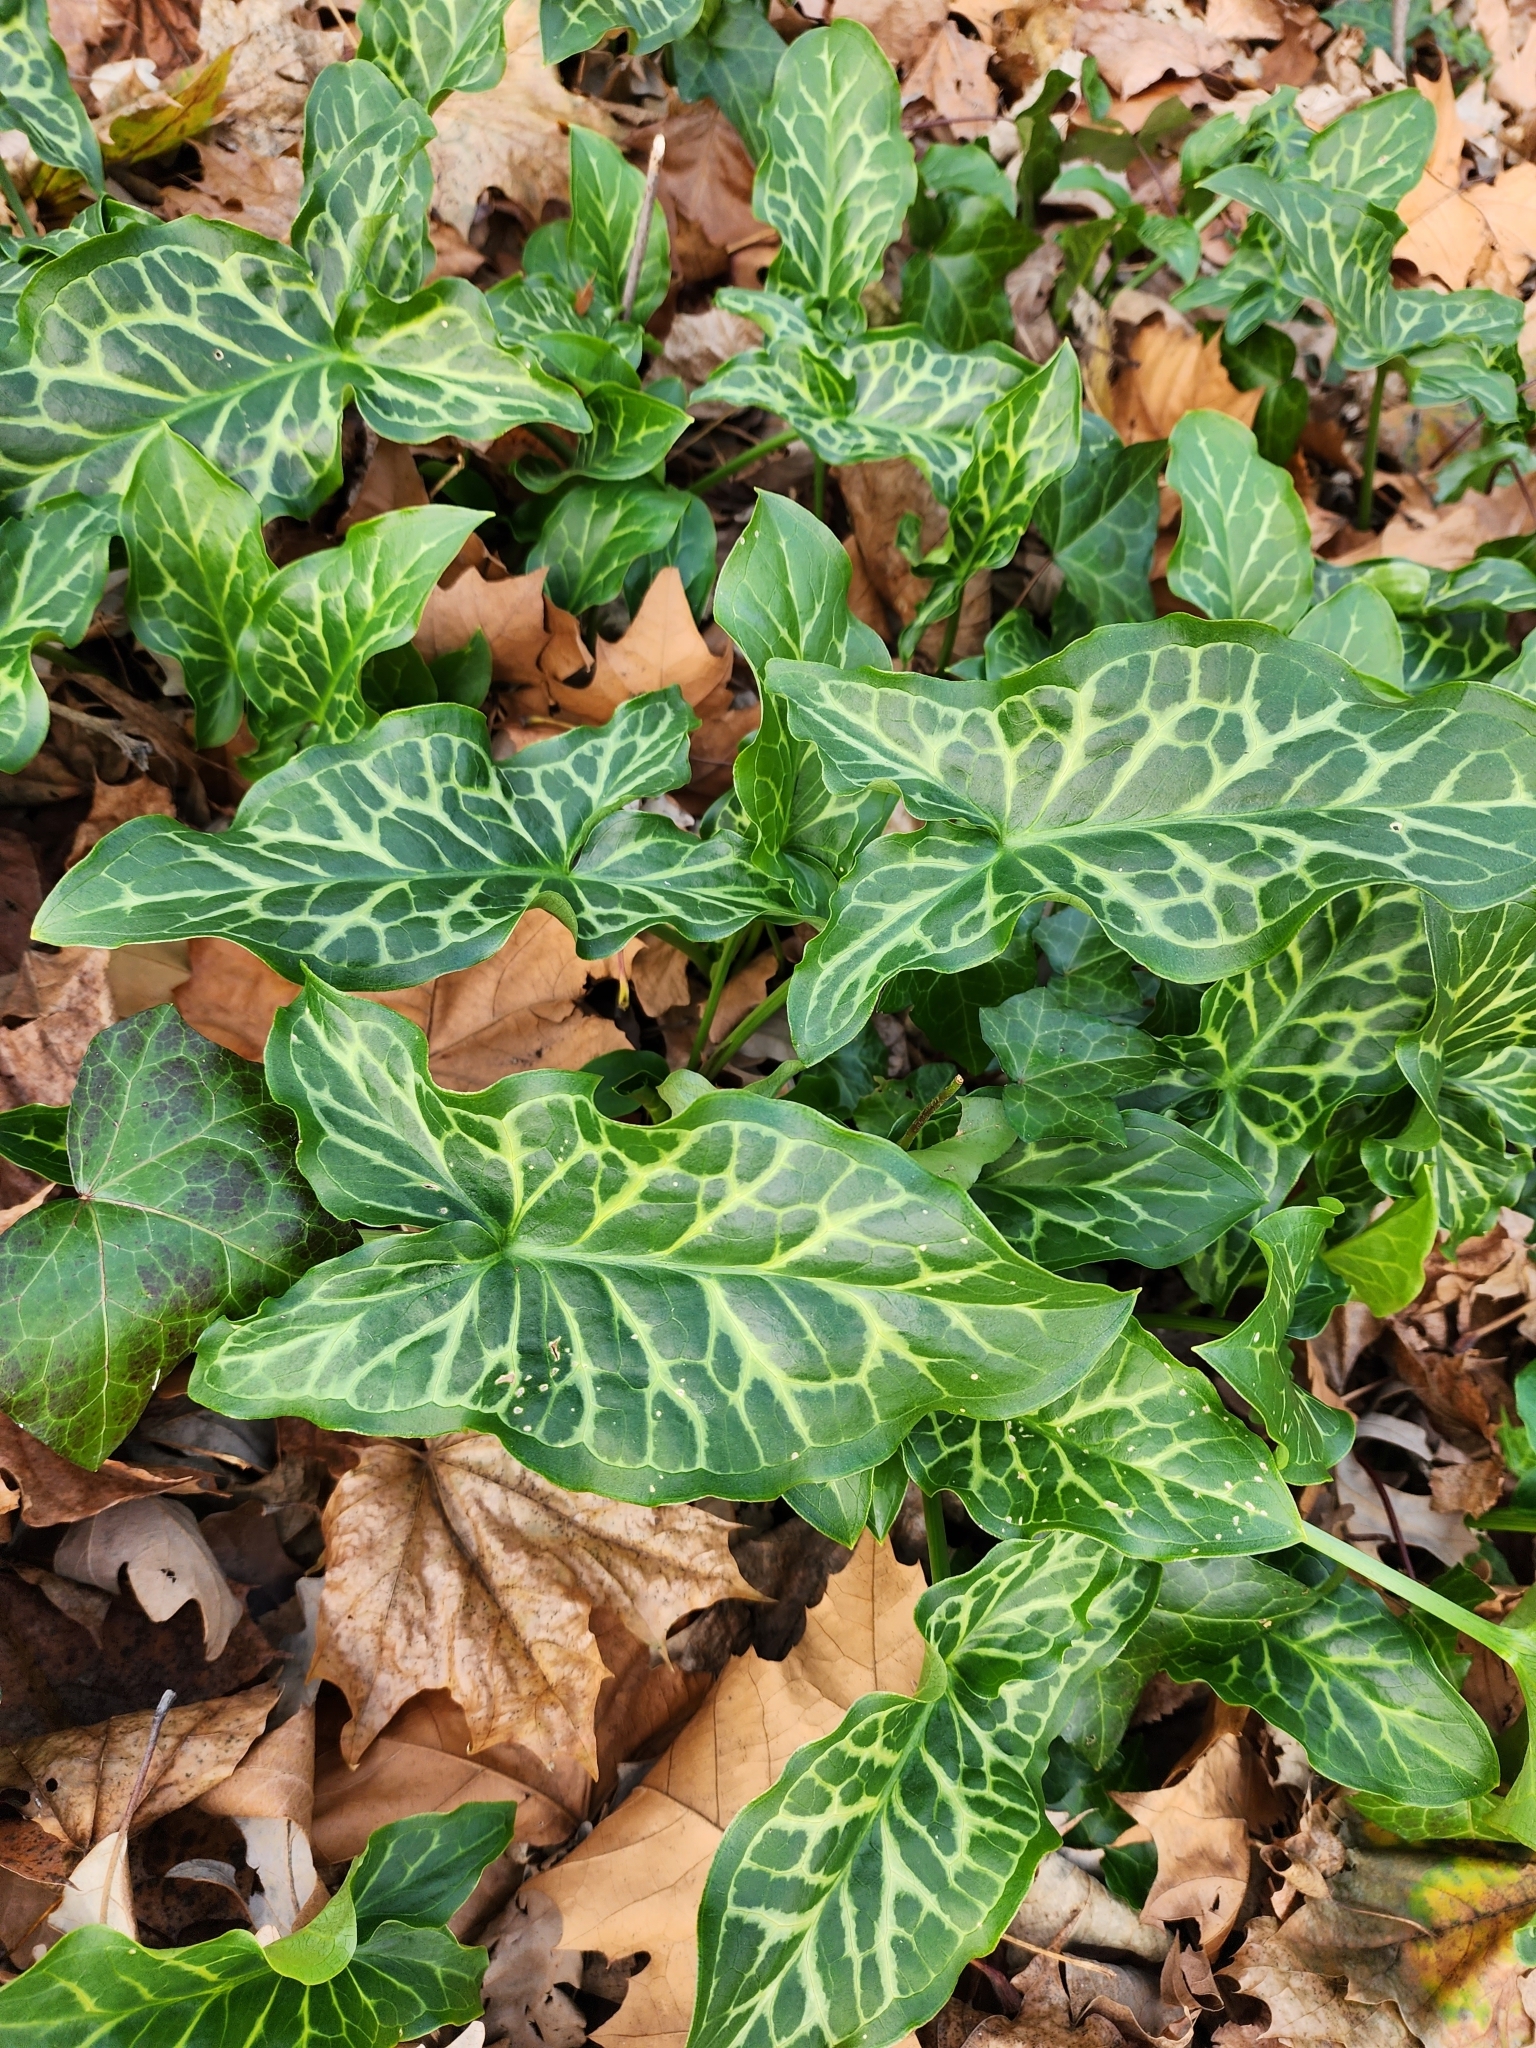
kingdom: Plantae
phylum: Tracheophyta
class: Liliopsida
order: Alismatales
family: Araceae
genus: Arum
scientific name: Arum italicum
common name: Italian lords-and-ladies
